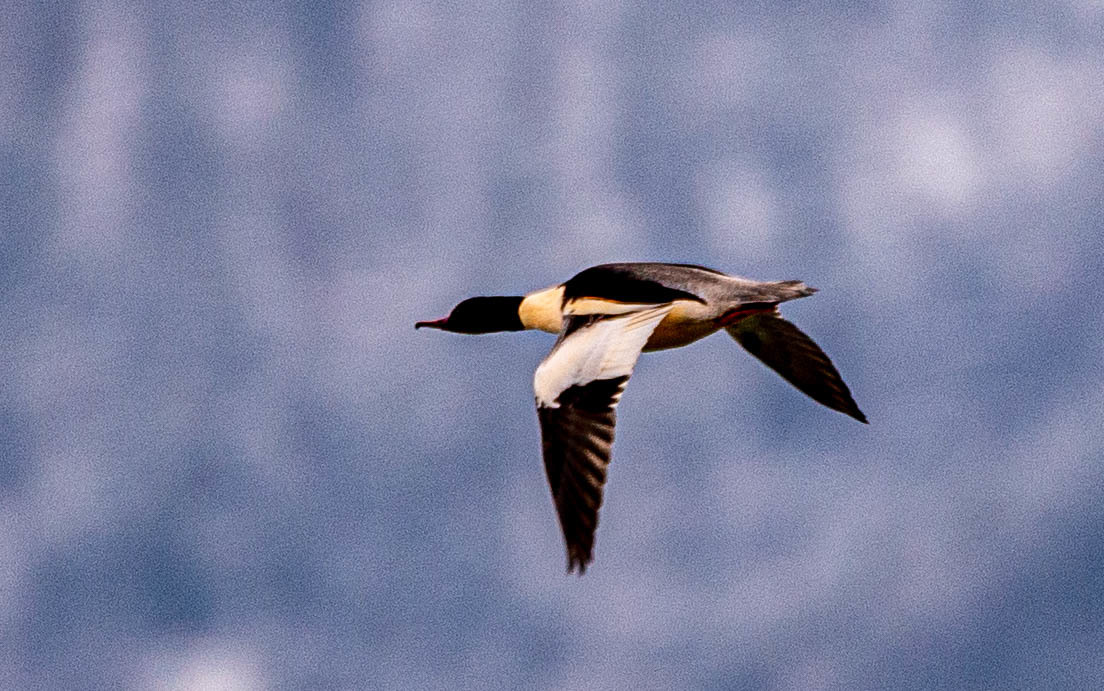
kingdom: Animalia
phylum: Chordata
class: Aves
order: Anseriformes
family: Anatidae
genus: Mergus
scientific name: Mergus merganser
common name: Common merganser
